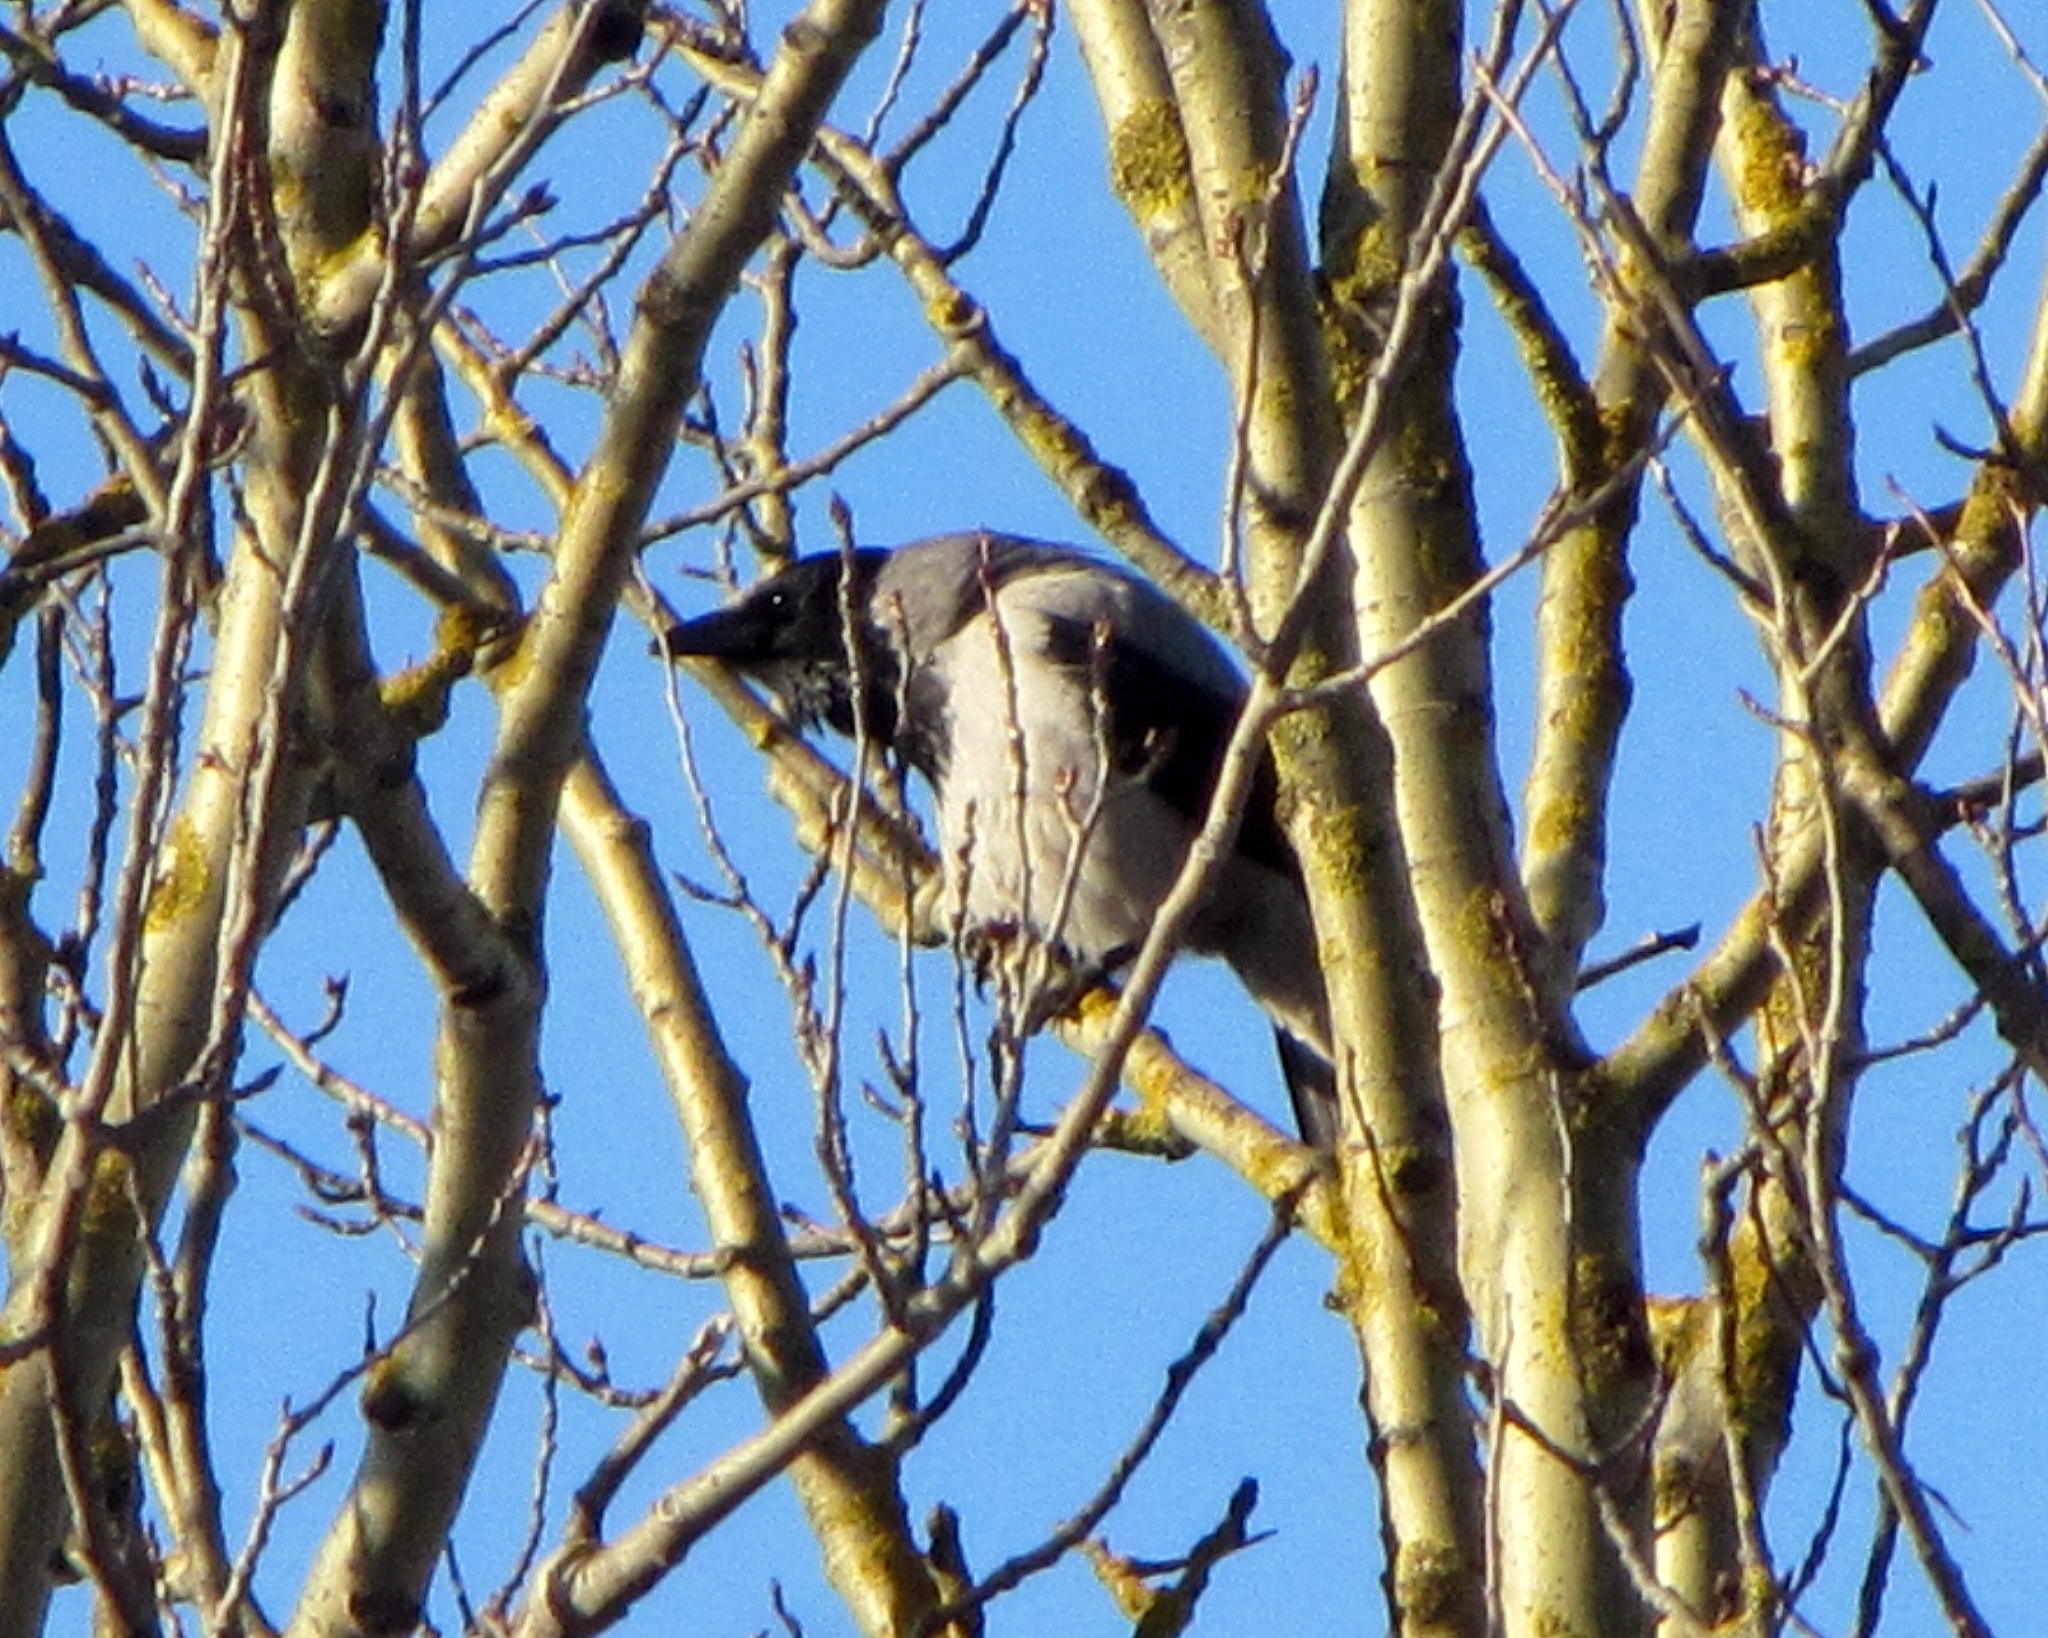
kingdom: Animalia
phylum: Chordata
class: Aves
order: Passeriformes
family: Corvidae
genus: Corvus
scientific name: Corvus cornix
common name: Hooded crow
